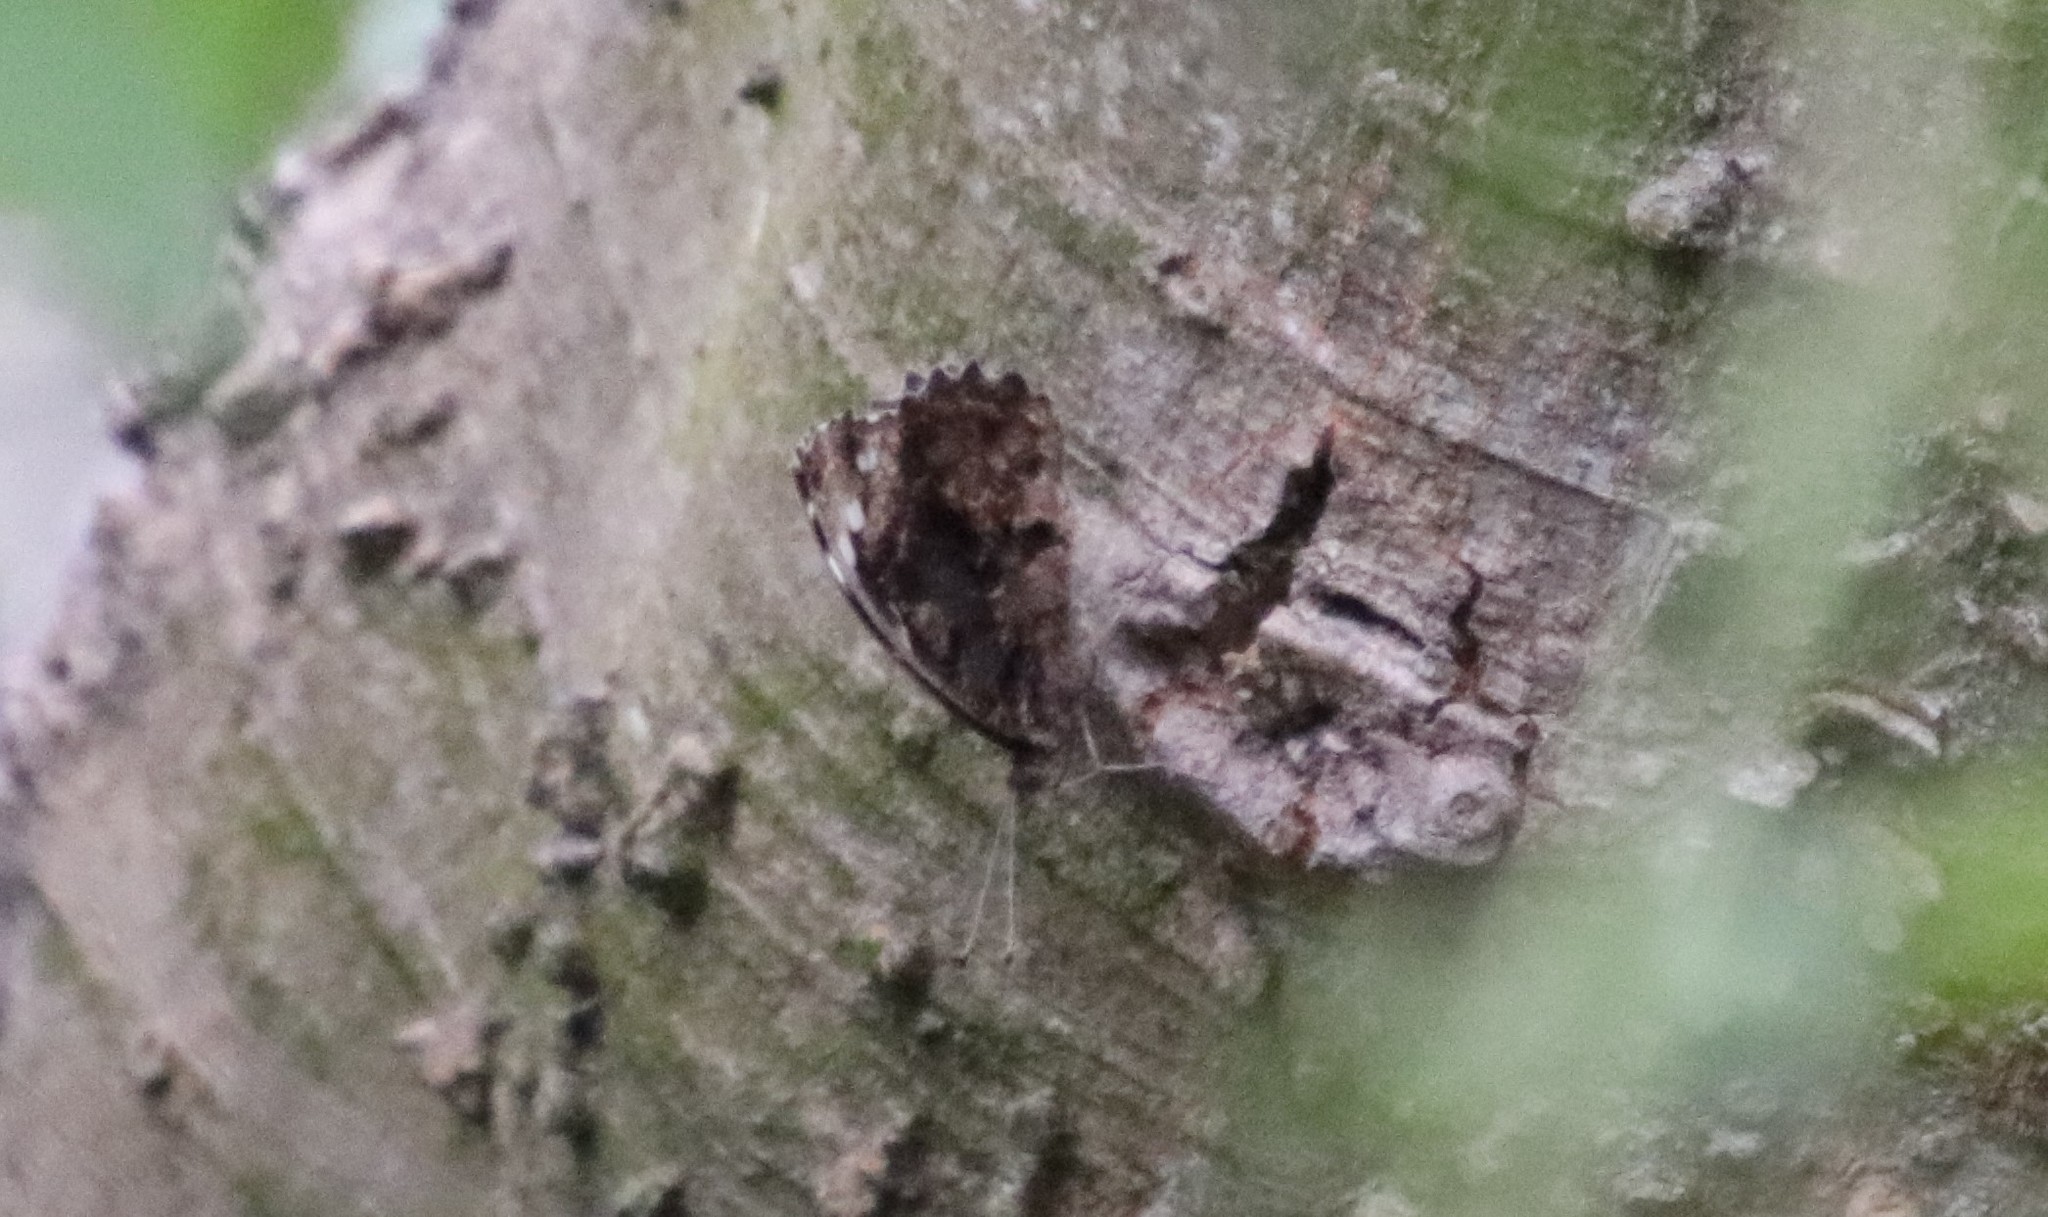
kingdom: Animalia
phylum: Arthropoda
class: Insecta
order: Lepidoptera
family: Nymphalidae
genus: Myscelia
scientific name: Myscelia ethusa
